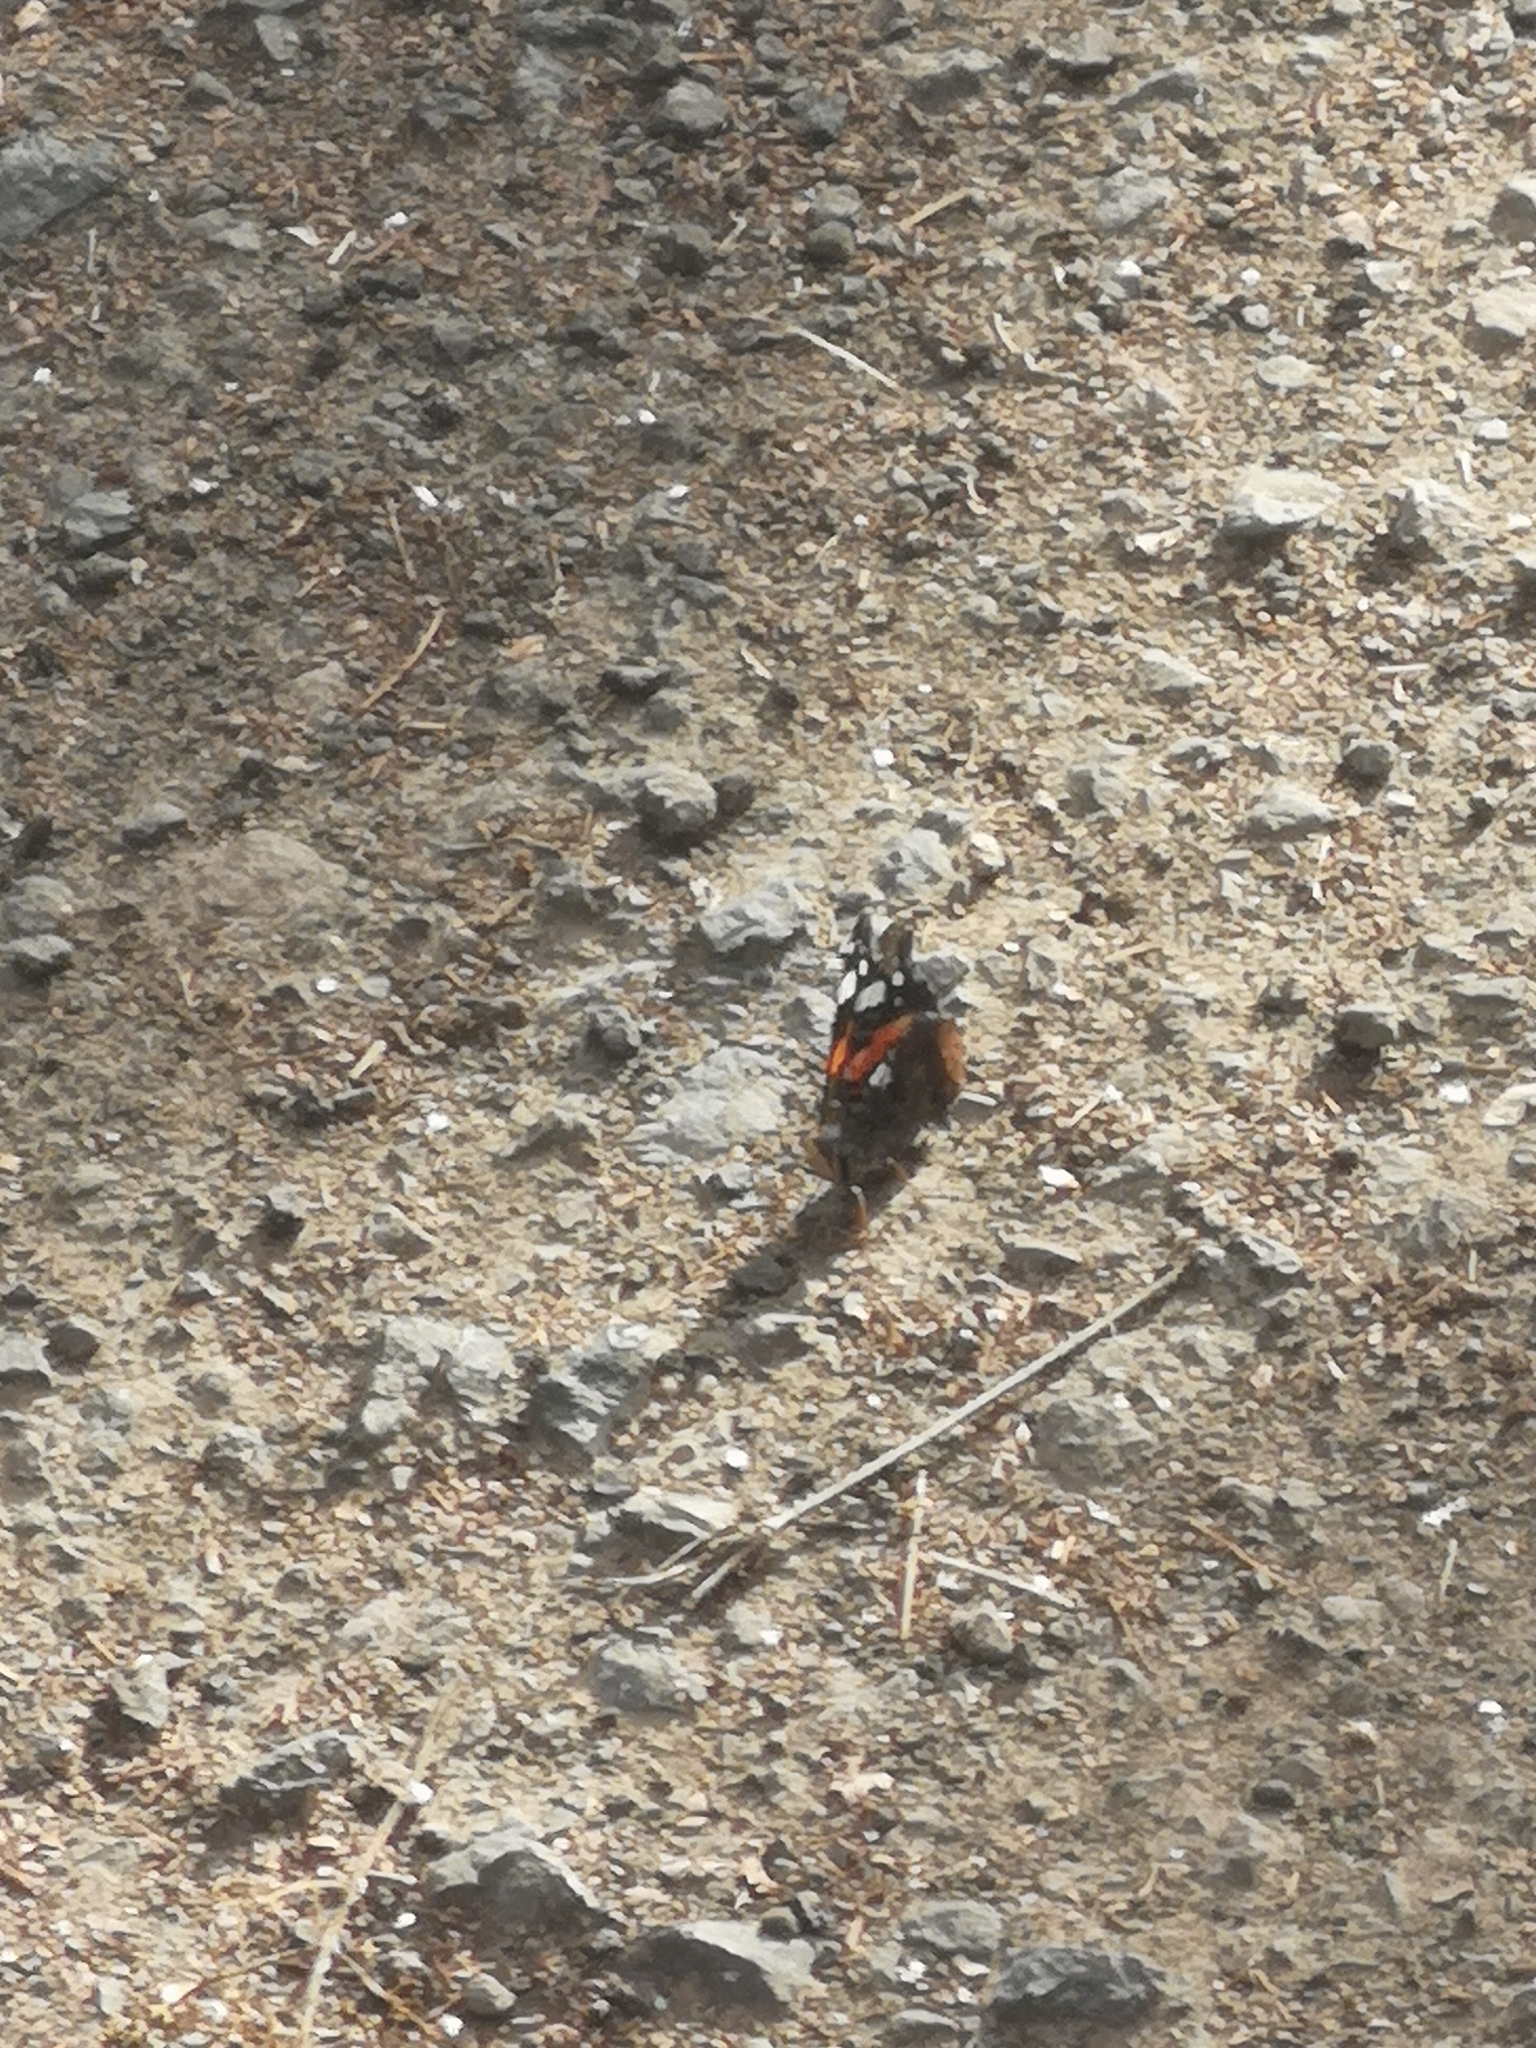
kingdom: Animalia
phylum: Arthropoda
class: Insecta
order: Lepidoptera
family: Nymphalidae
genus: Vanessa
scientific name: Vanessa atalanta
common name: Red admiral
